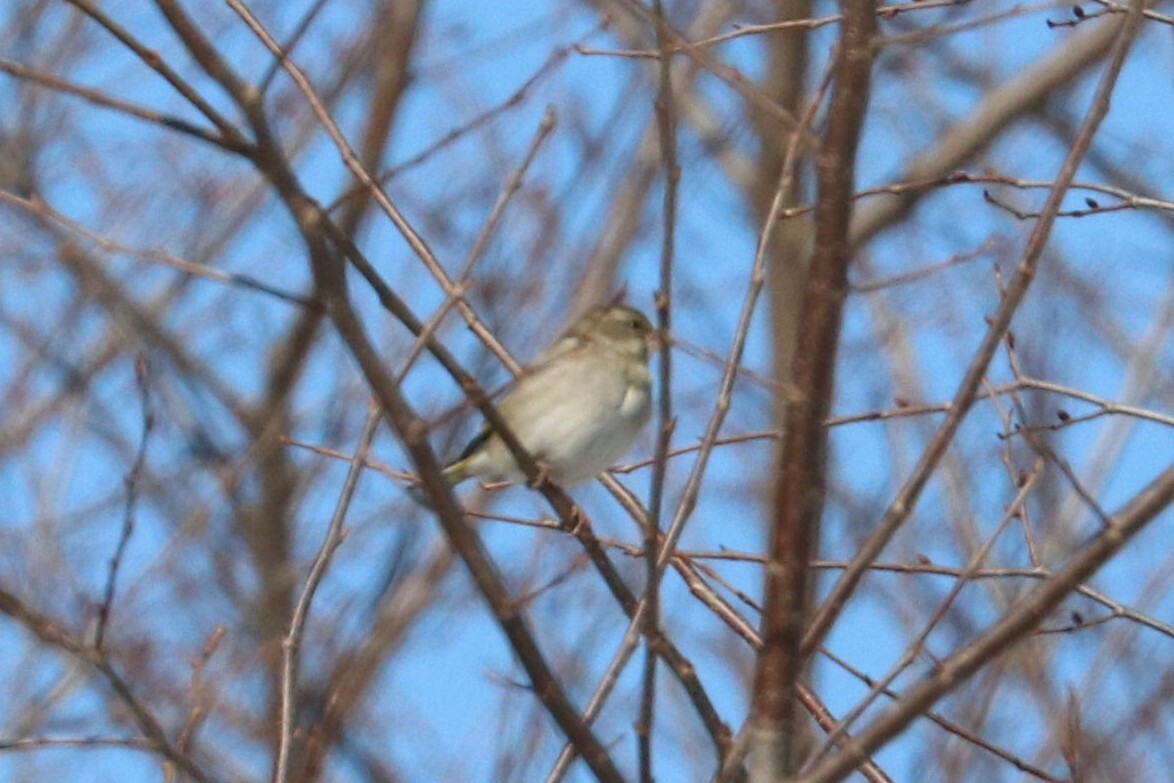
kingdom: Plantae
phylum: Tracheophyta
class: Liliopsida
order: Poales
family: Poaceae
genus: Chloris
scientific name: Chloris chloris
